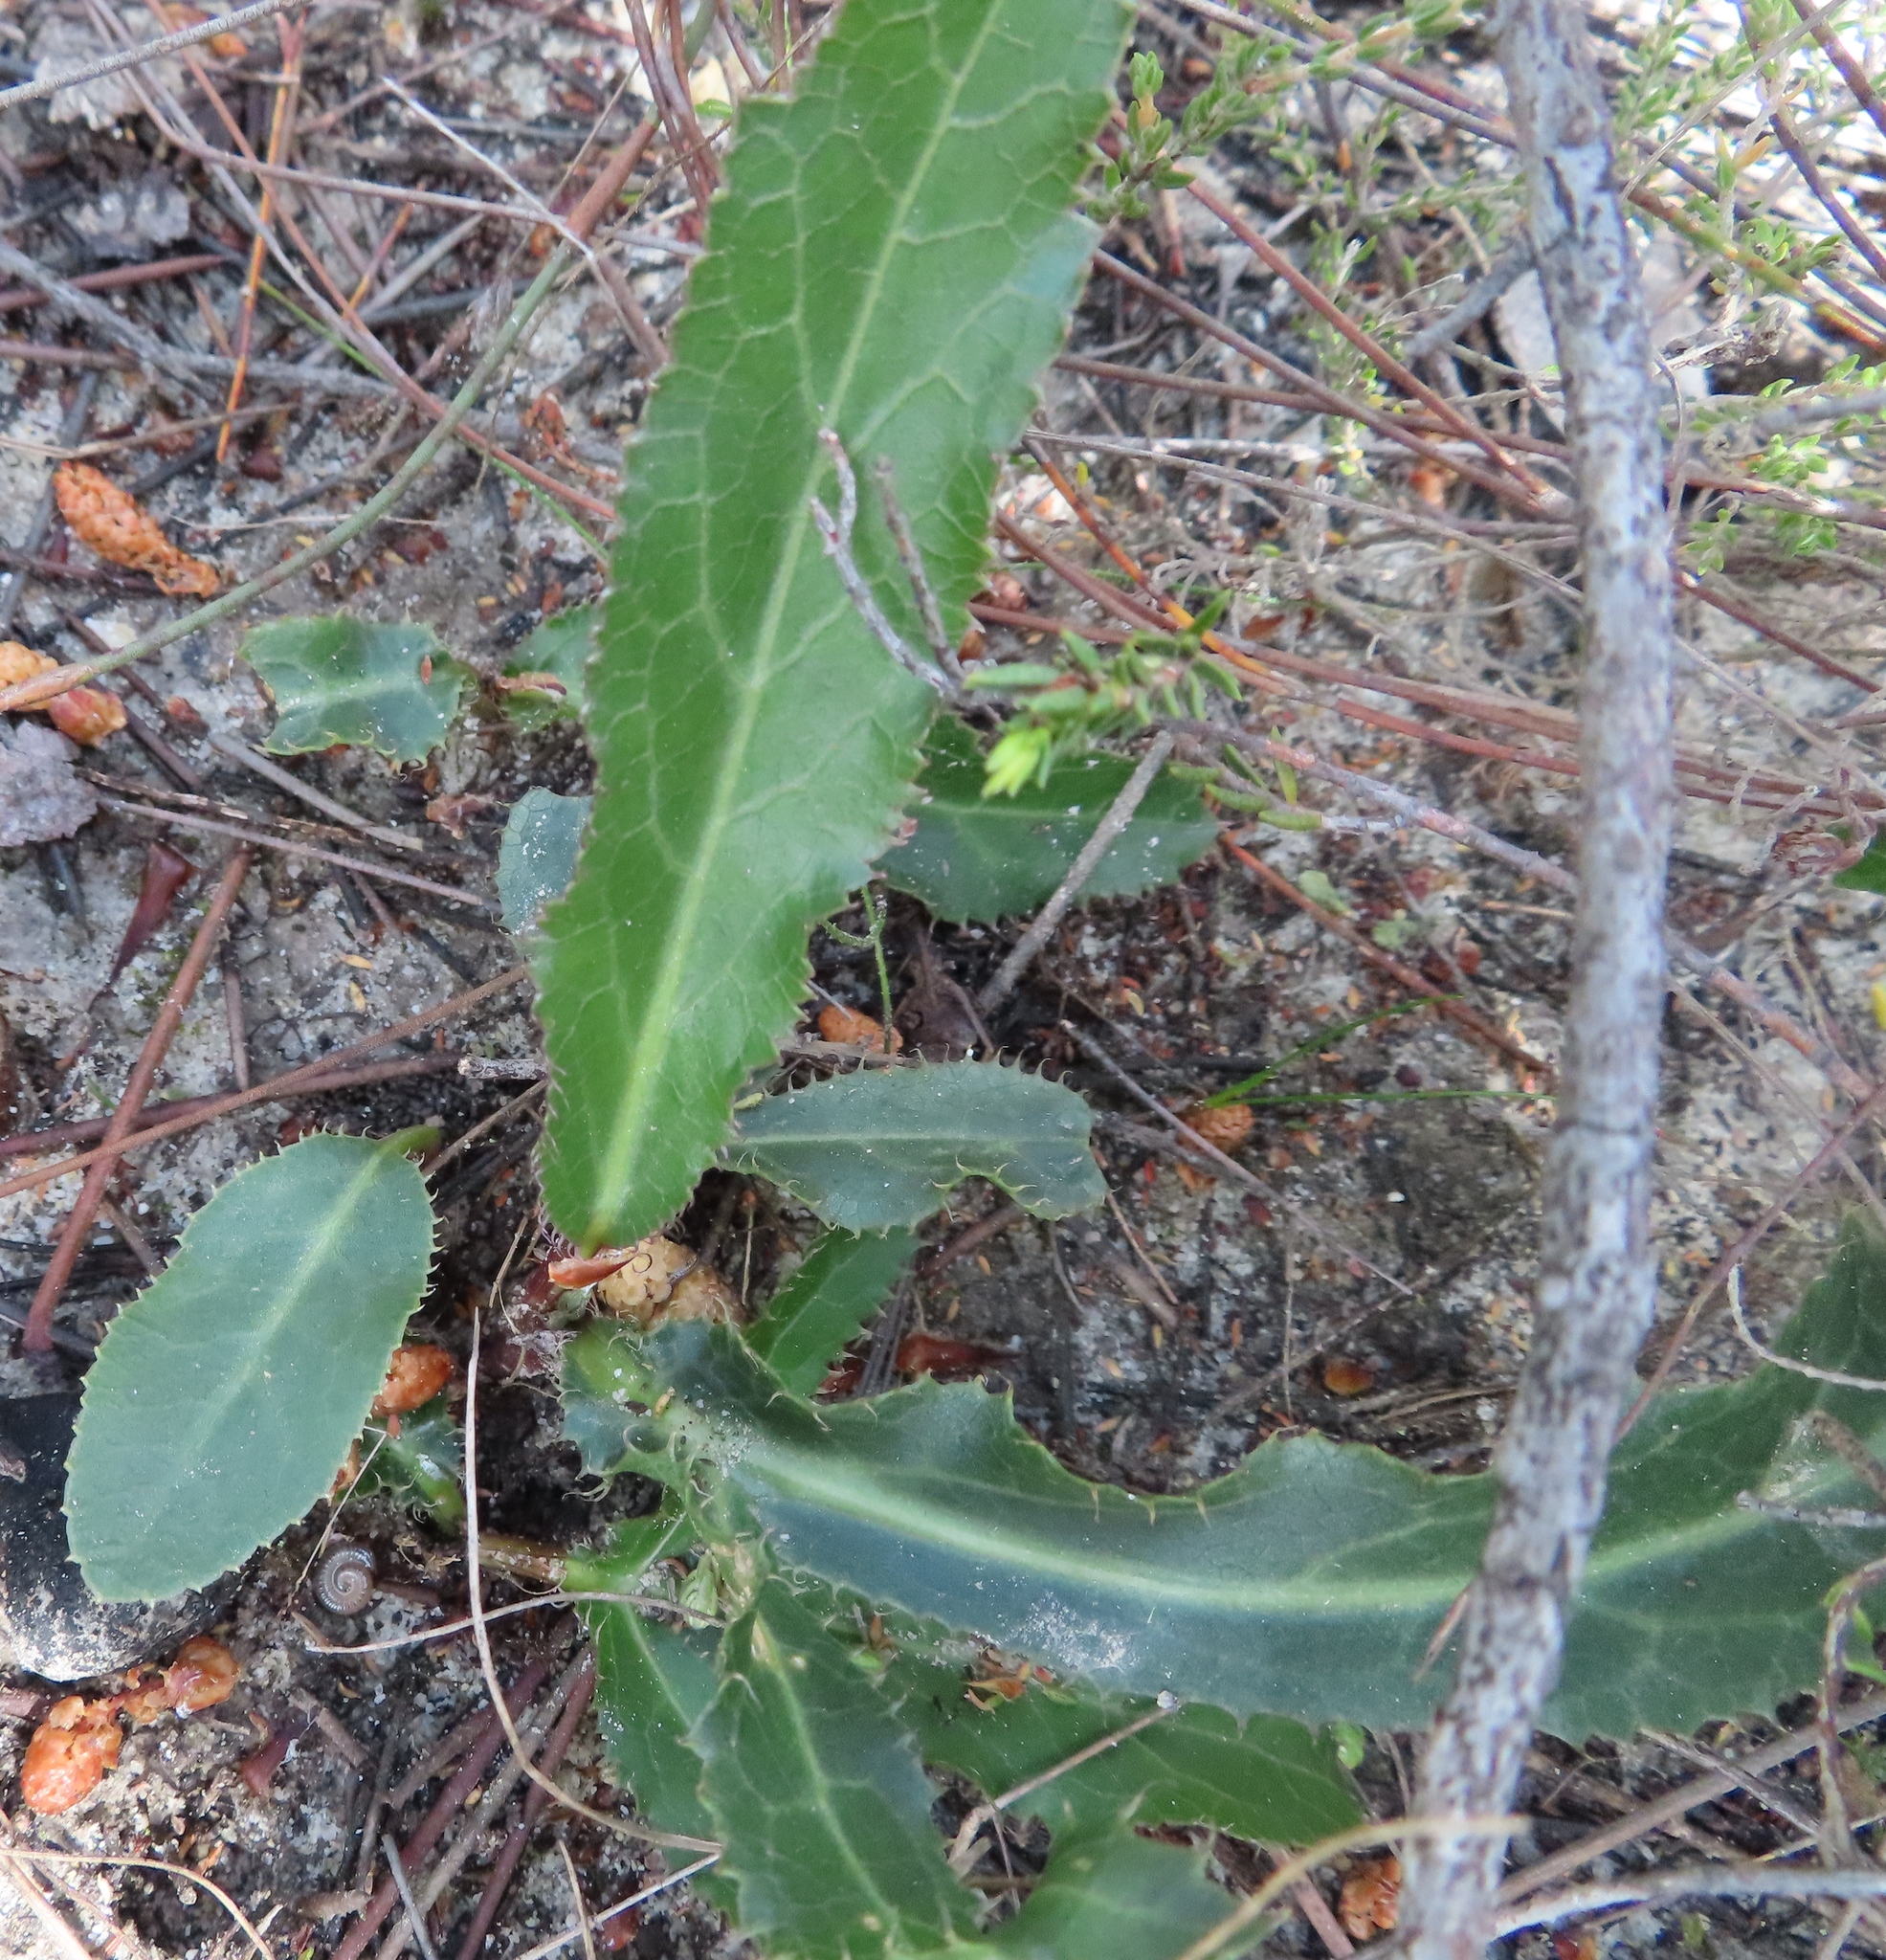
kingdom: Plantae
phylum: Tracheophyta
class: Magnoliopsida
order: Apiales
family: Apiaceae
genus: Lichtensteinia
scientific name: Lichtensteinia lacera
